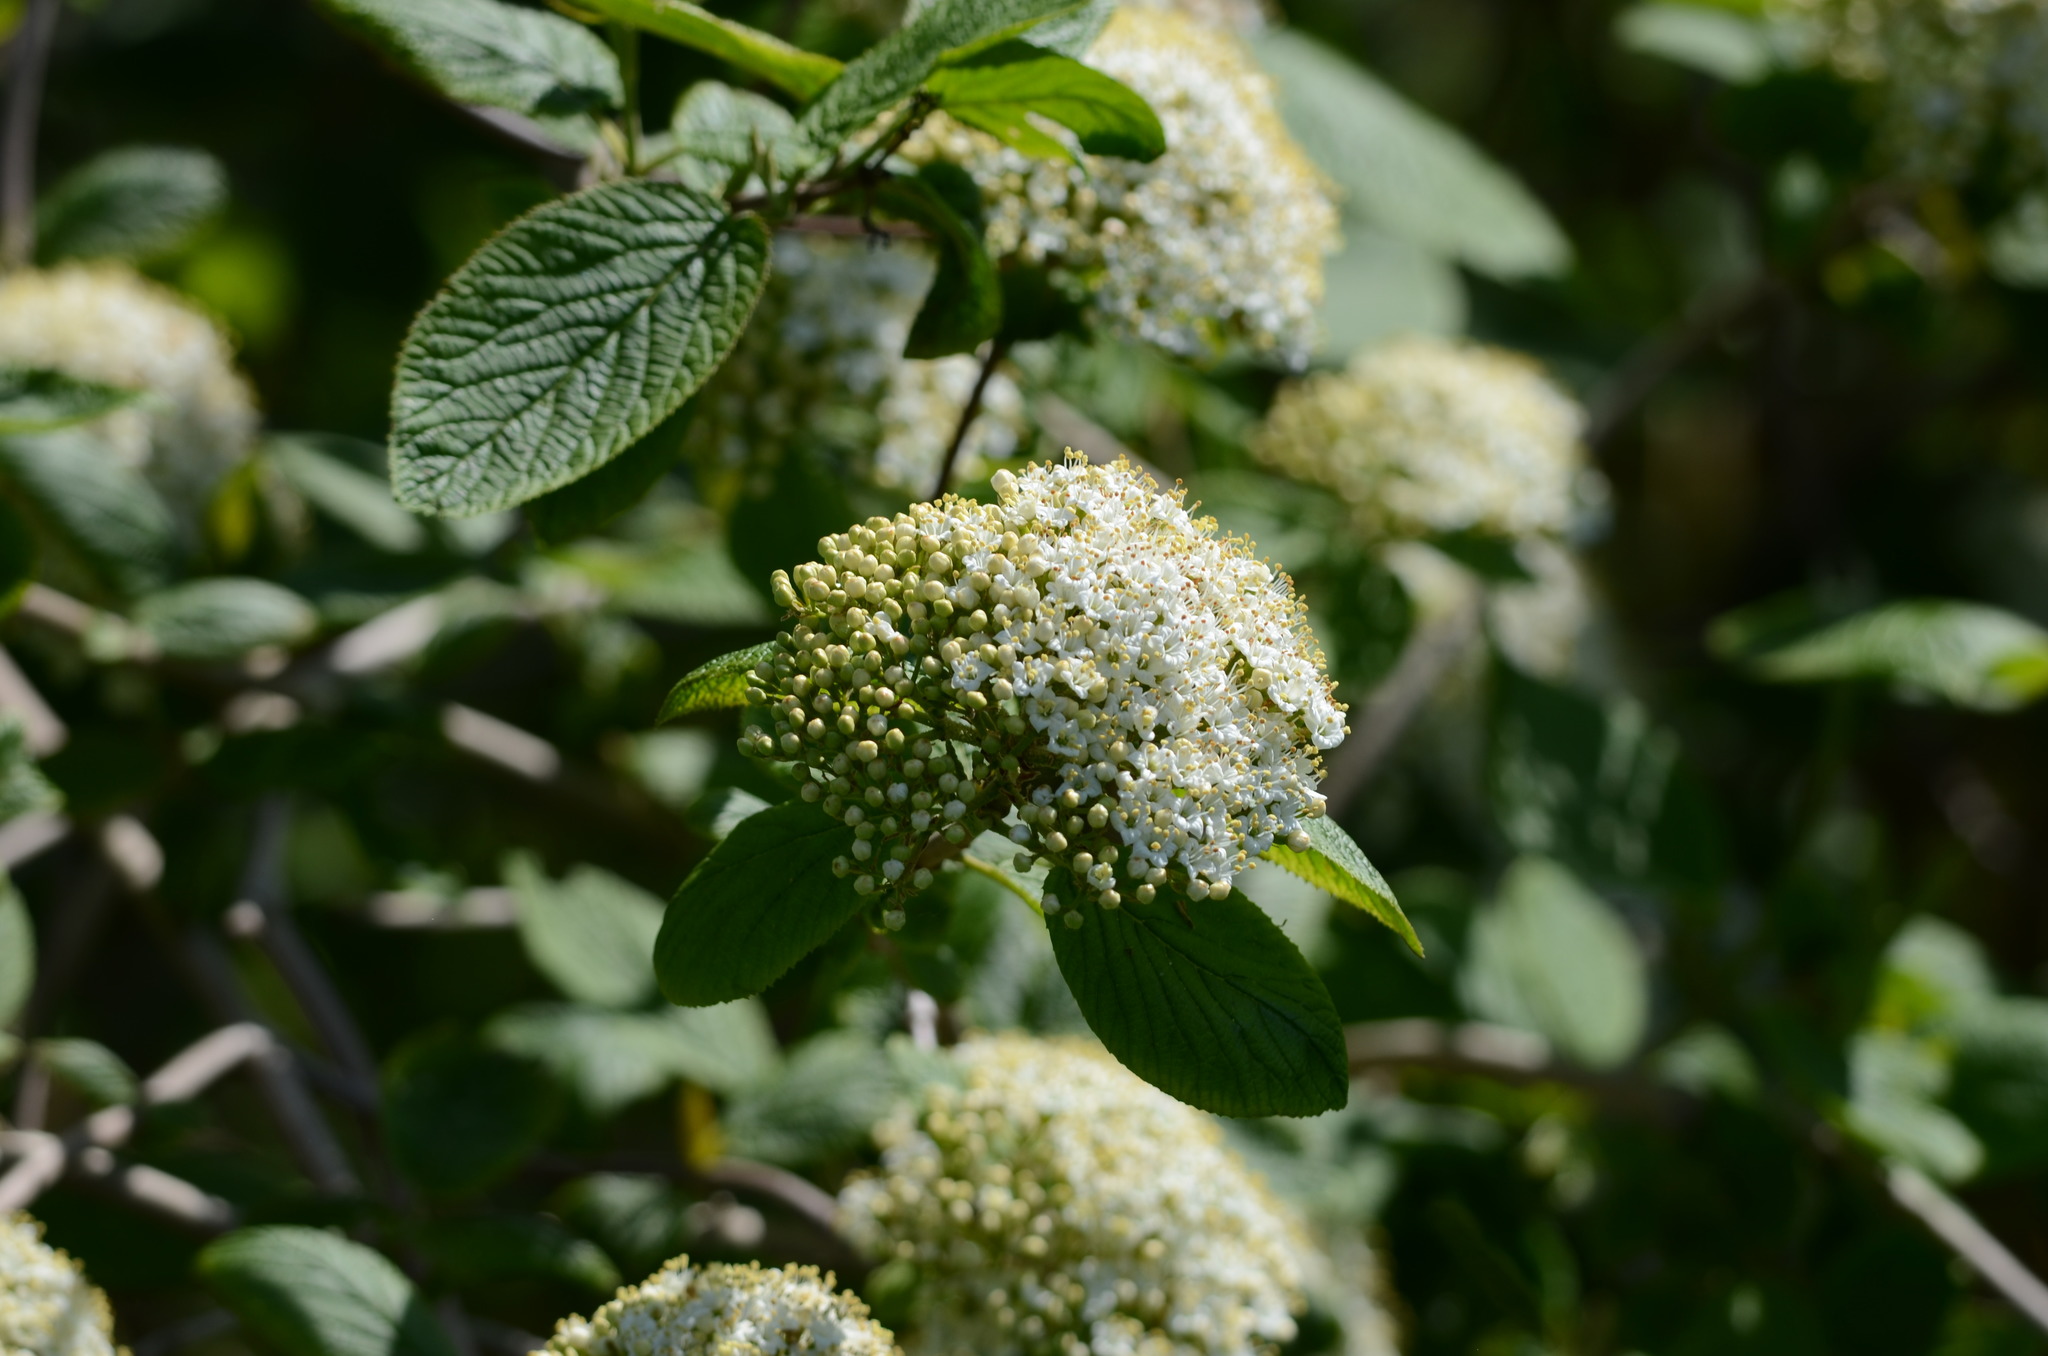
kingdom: Plantae
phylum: Tracheophyta
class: Magnoliopsida
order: Dipsacales
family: Viburnaceae
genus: Viburnum
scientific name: Viburnum lantana
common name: Wayfaring tree
